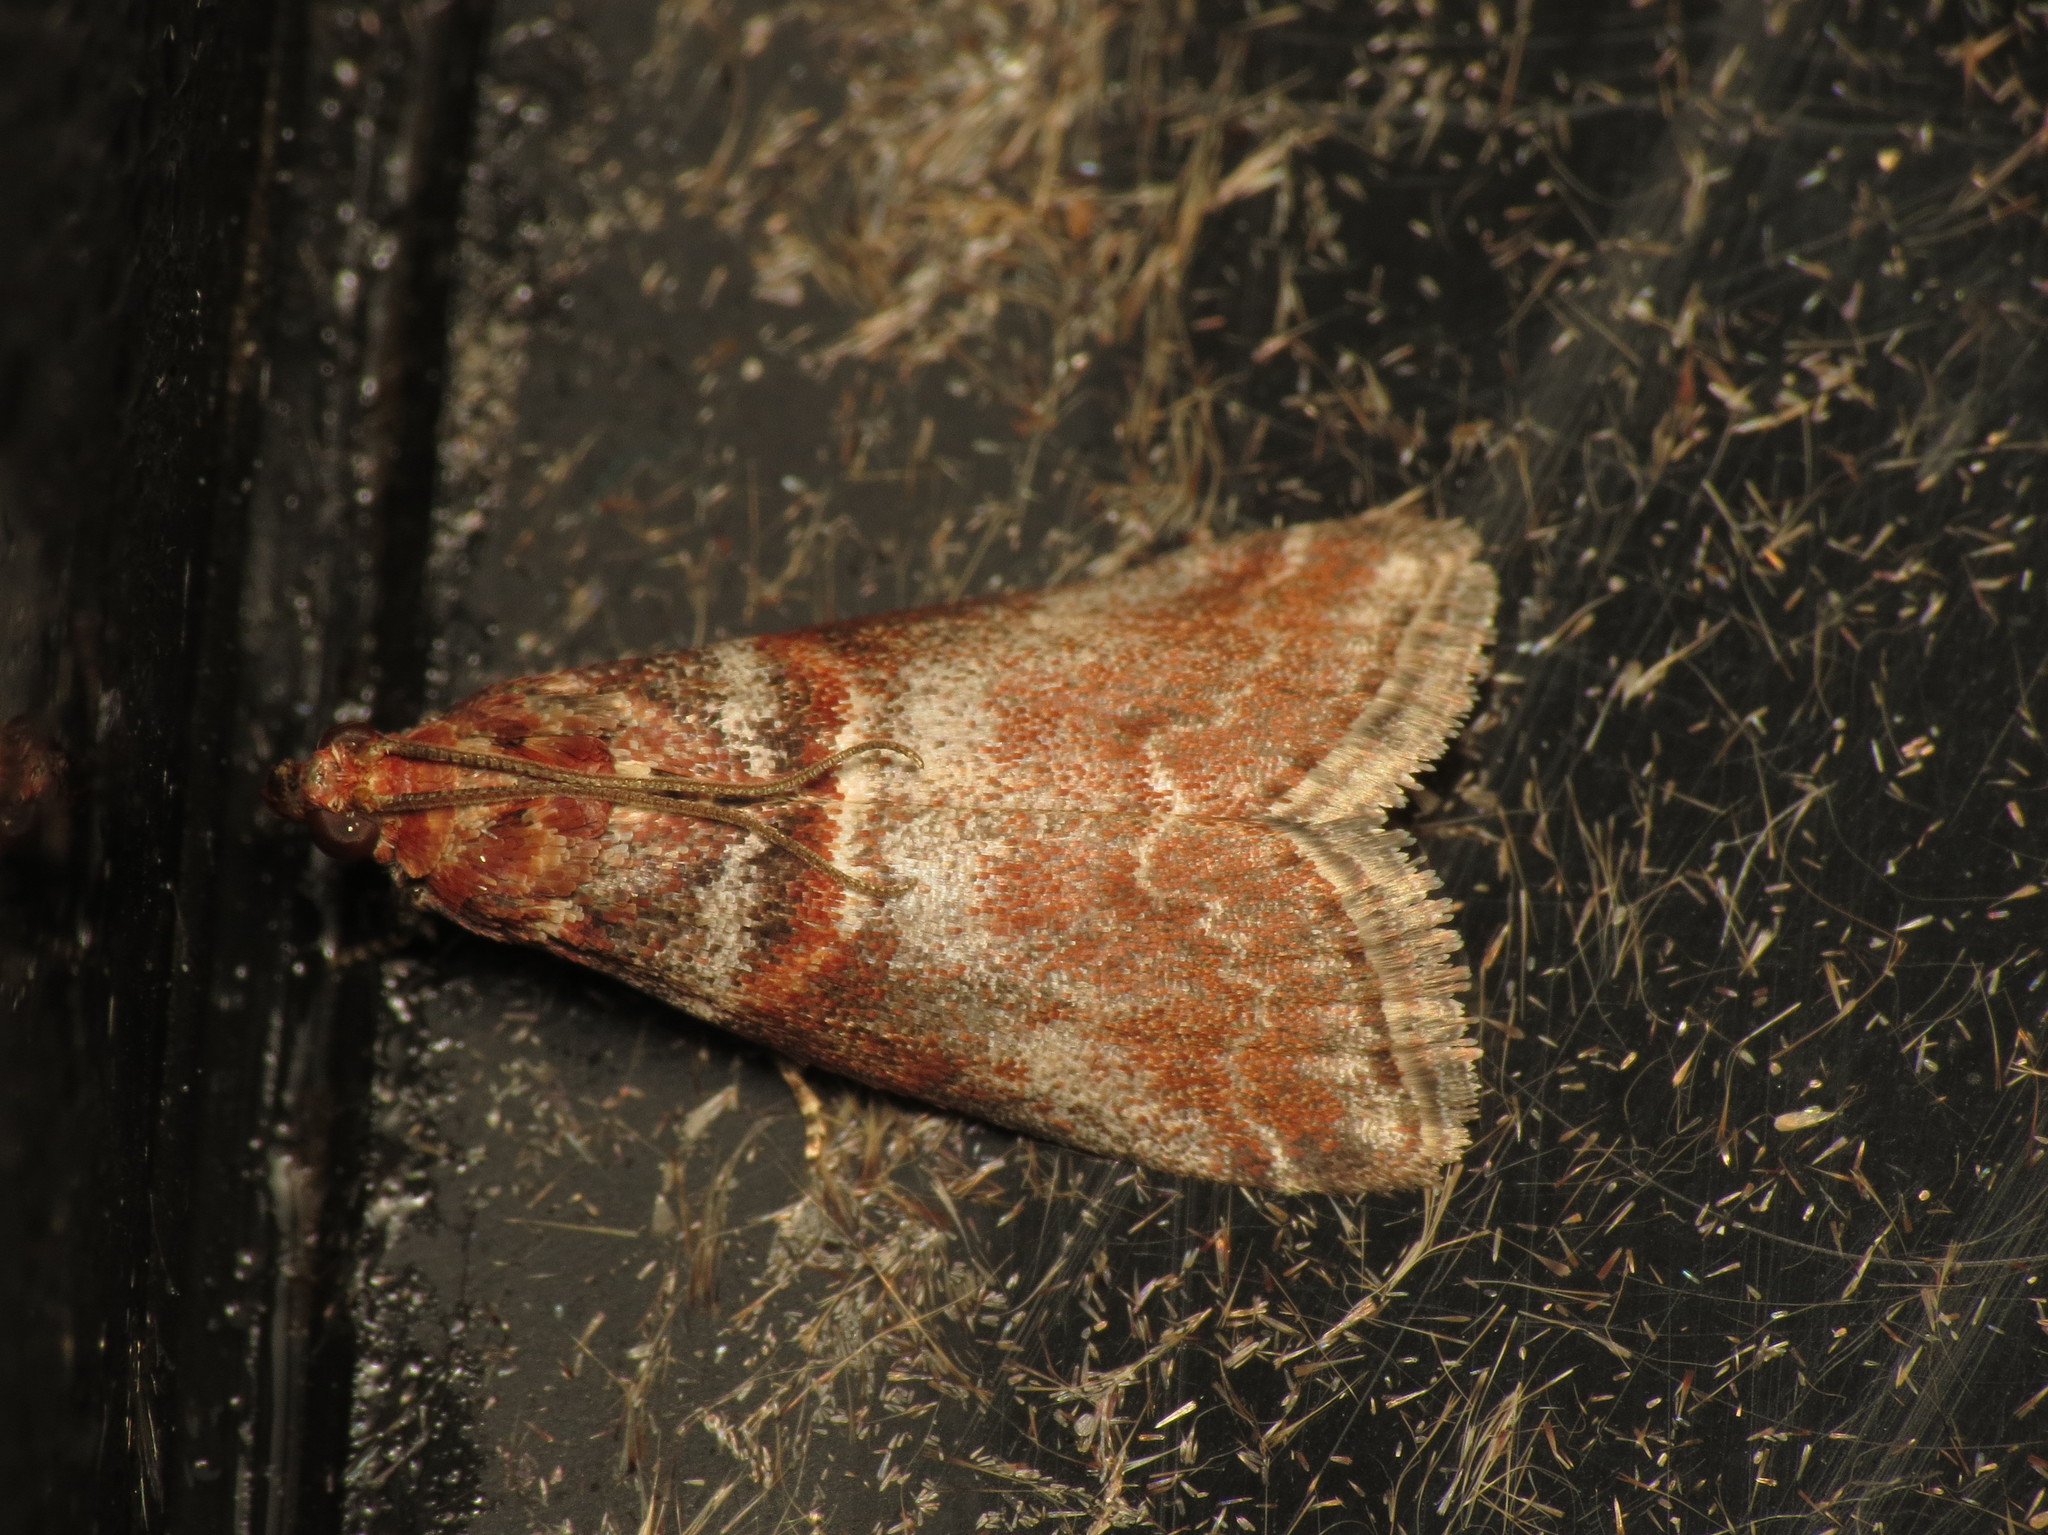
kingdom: Animalia
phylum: Arthropoda
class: Insecta
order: Lepidoptera
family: Pyralidae
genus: Acrobasis
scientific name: Acrobasis advenella
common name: Grey knot-horn
